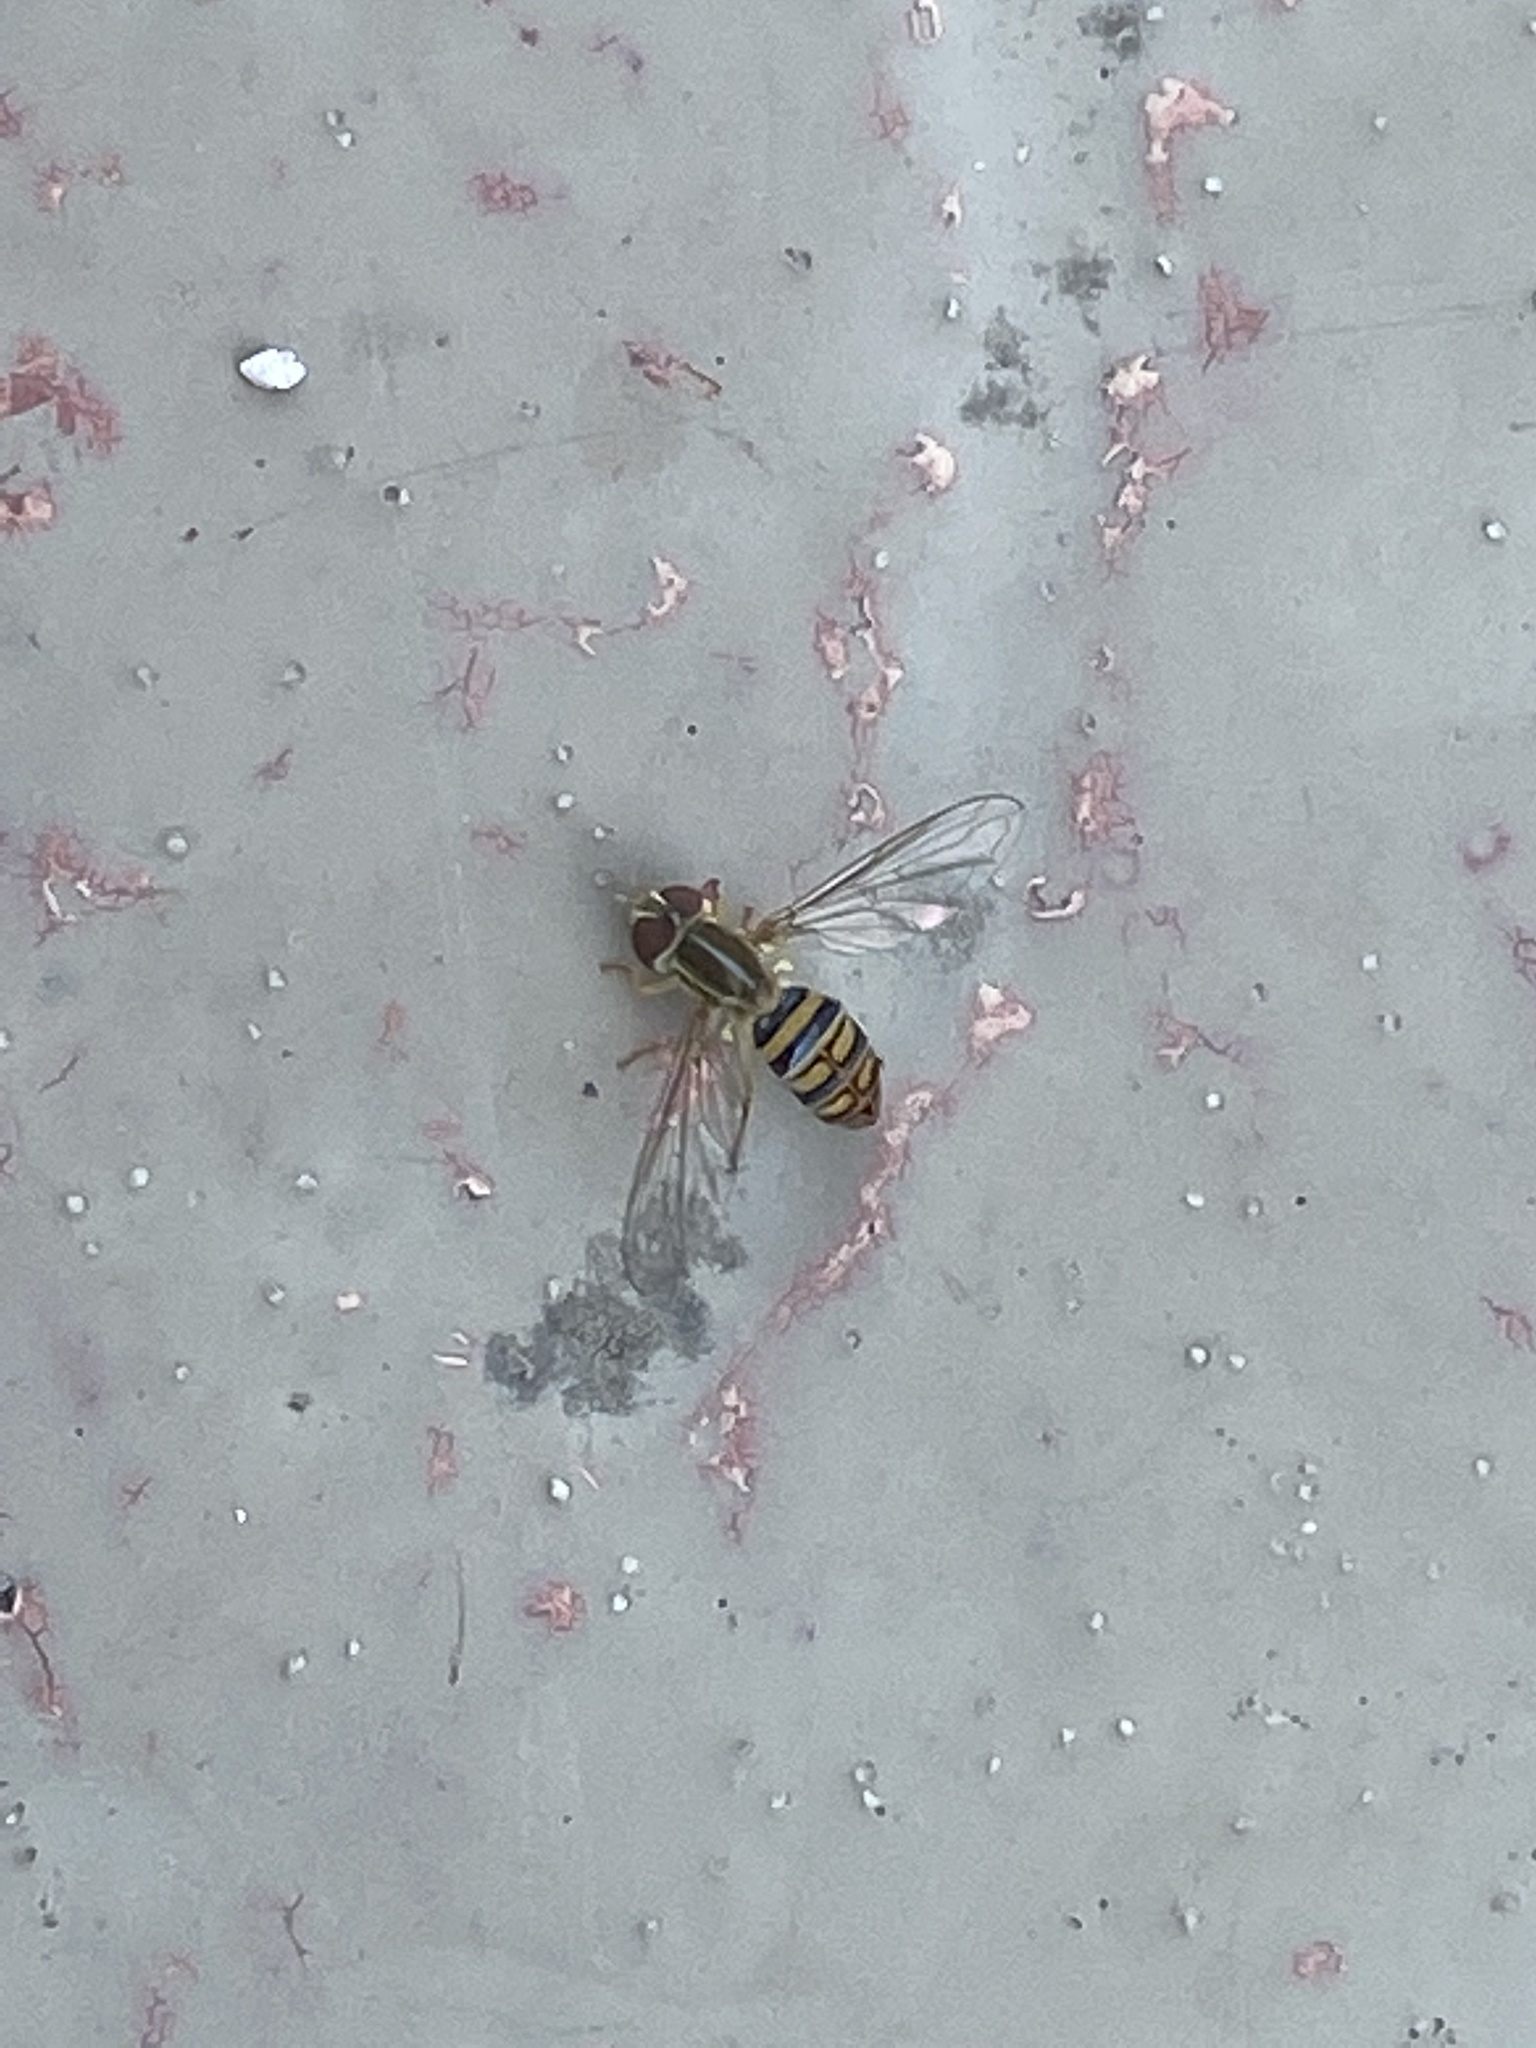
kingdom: Animalia
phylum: Arthropoda
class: Insecta
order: Diptera
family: Syrphidae
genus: Toxomerus
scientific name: Toxomerus politus
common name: Maize calligrapher
